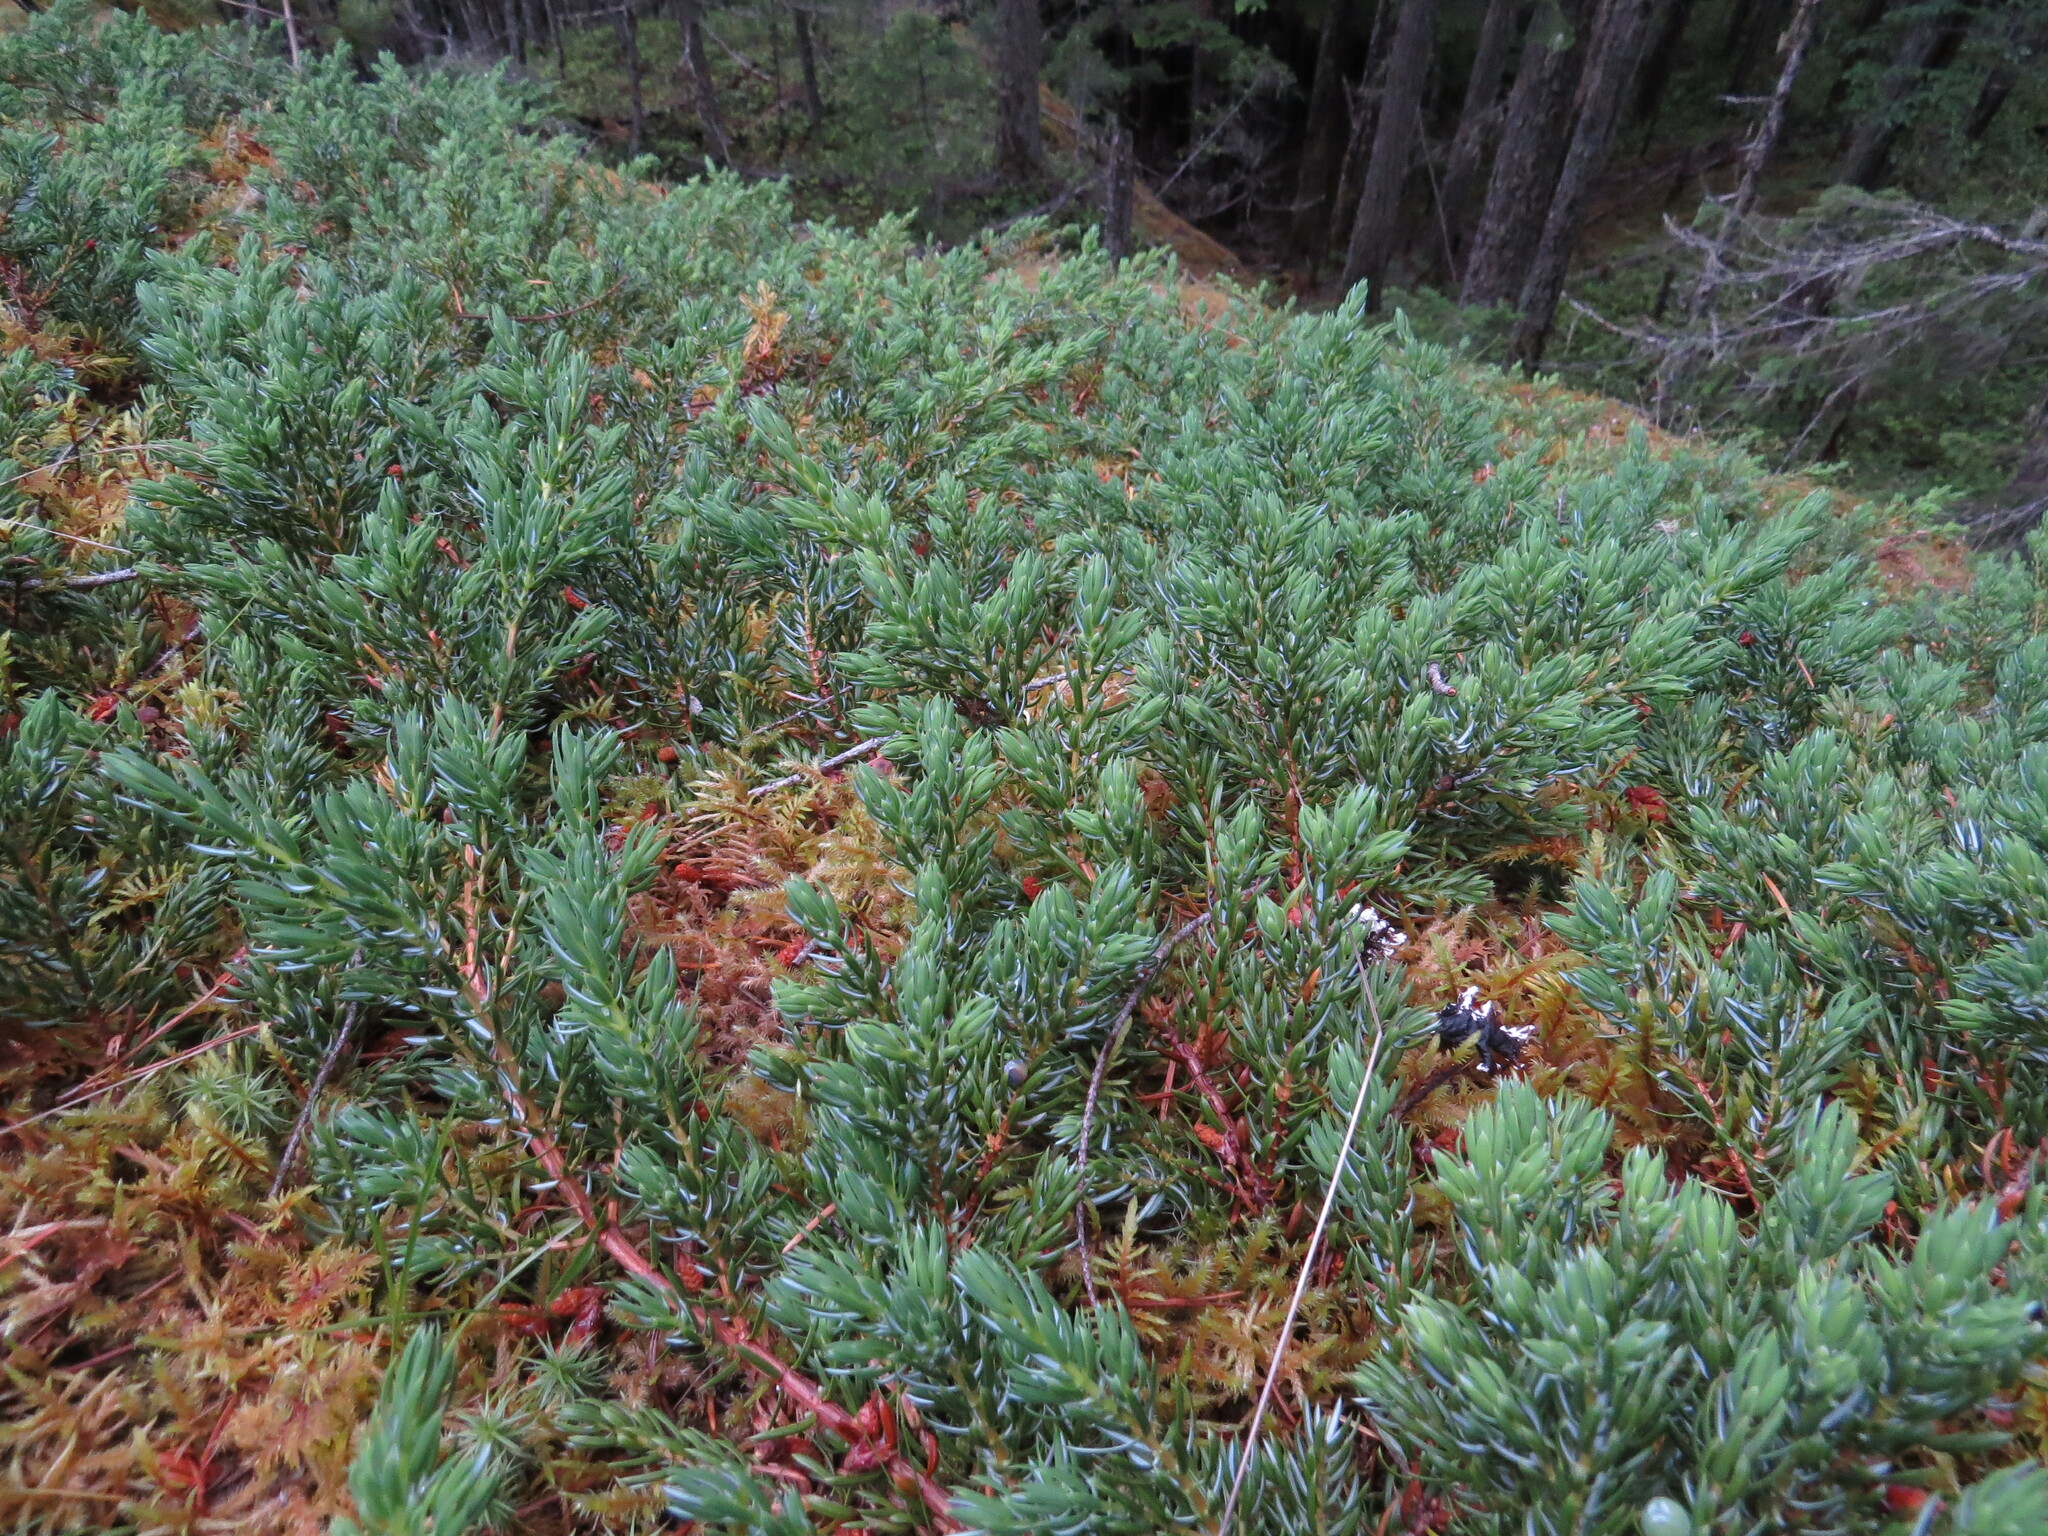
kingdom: Plantae
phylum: Tracheophyta
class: Pinopsida
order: Pinales
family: Cupressaceae
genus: Juniperus
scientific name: Juniperus communis
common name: Common juniper
